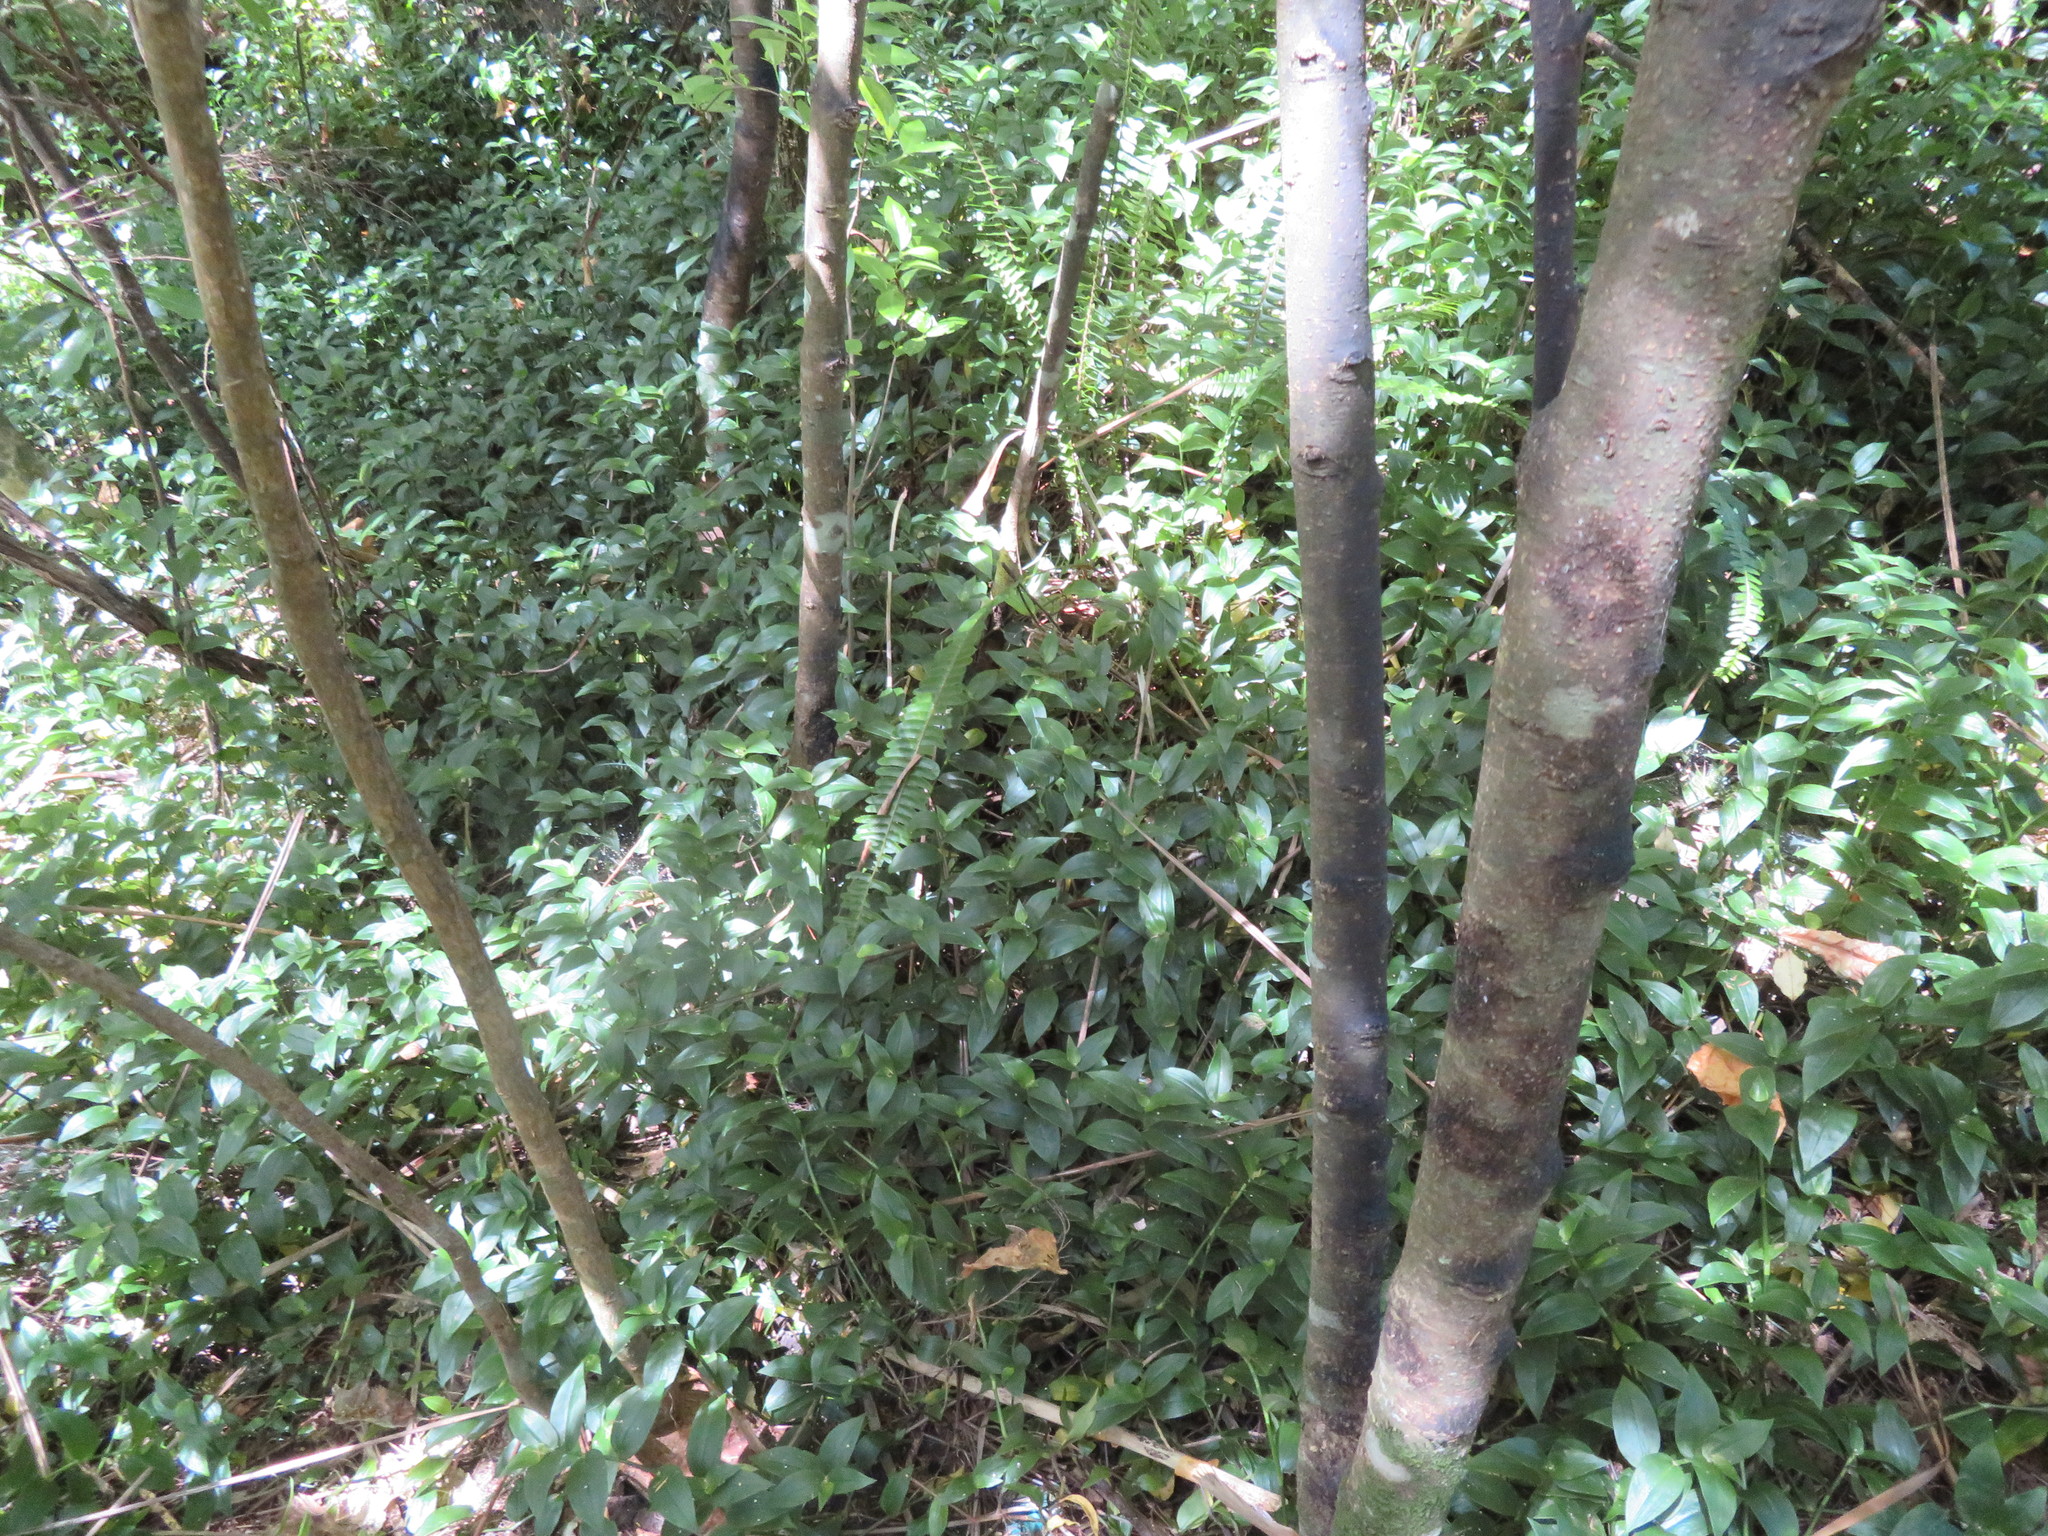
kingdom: Plantae
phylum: Tracheophyta
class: Polypodiopsida
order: Polypodiales
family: Nephrolepidaceae
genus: Nephrolepis
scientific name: Nephrolepis cordifolia
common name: Narrow swordfern
